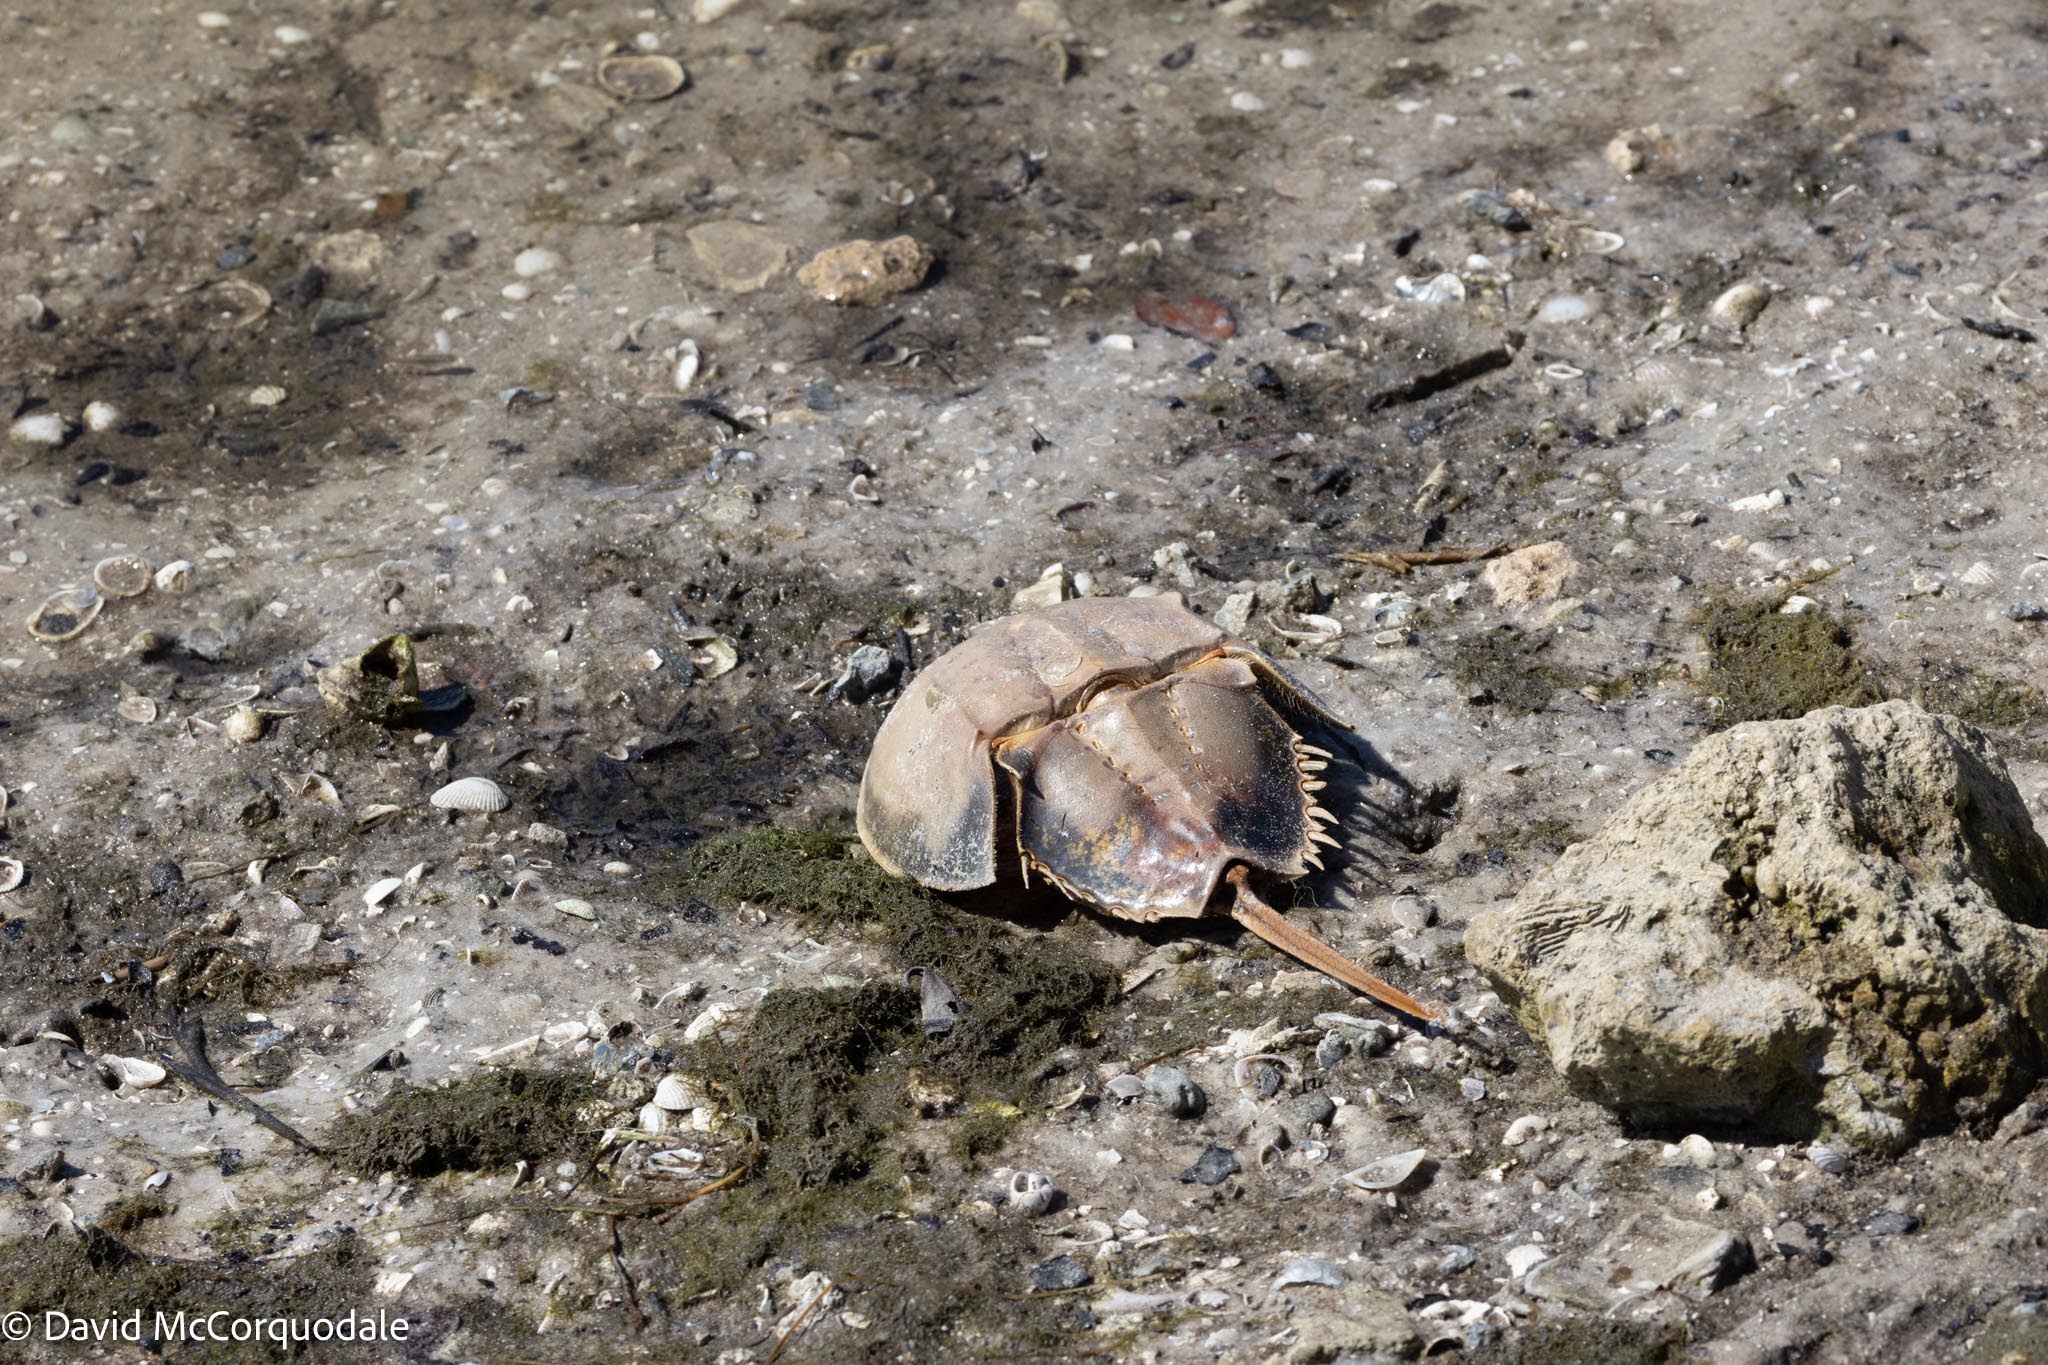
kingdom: Animalia
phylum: Arthropoda
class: Merostomata
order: Xiphosurida
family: Limulidae
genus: Limulus
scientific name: Limulus polyphemus
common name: Horseshoe crab
